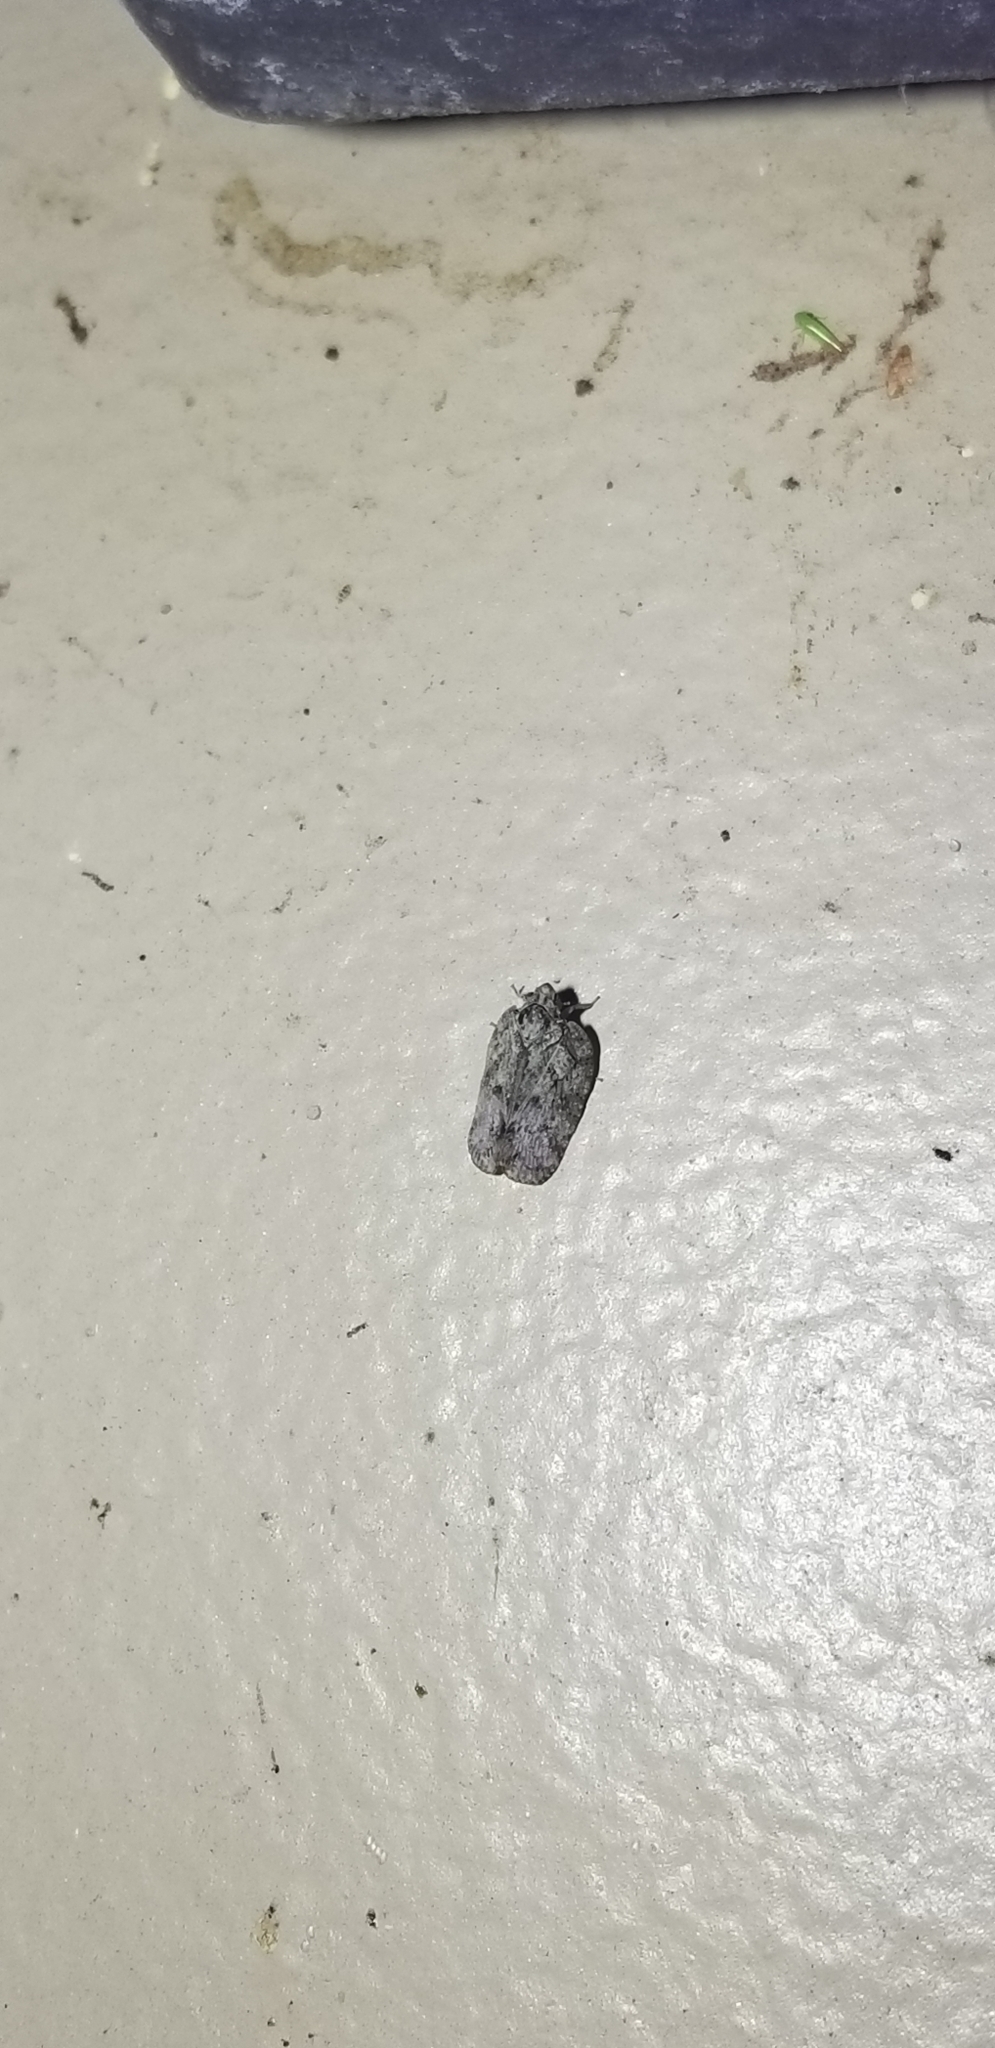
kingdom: Animalia
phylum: Arthropoda
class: Insecta
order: Hemiptera
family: Flatidae
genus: Flatoidinus
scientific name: Flatoidinus punctatus
